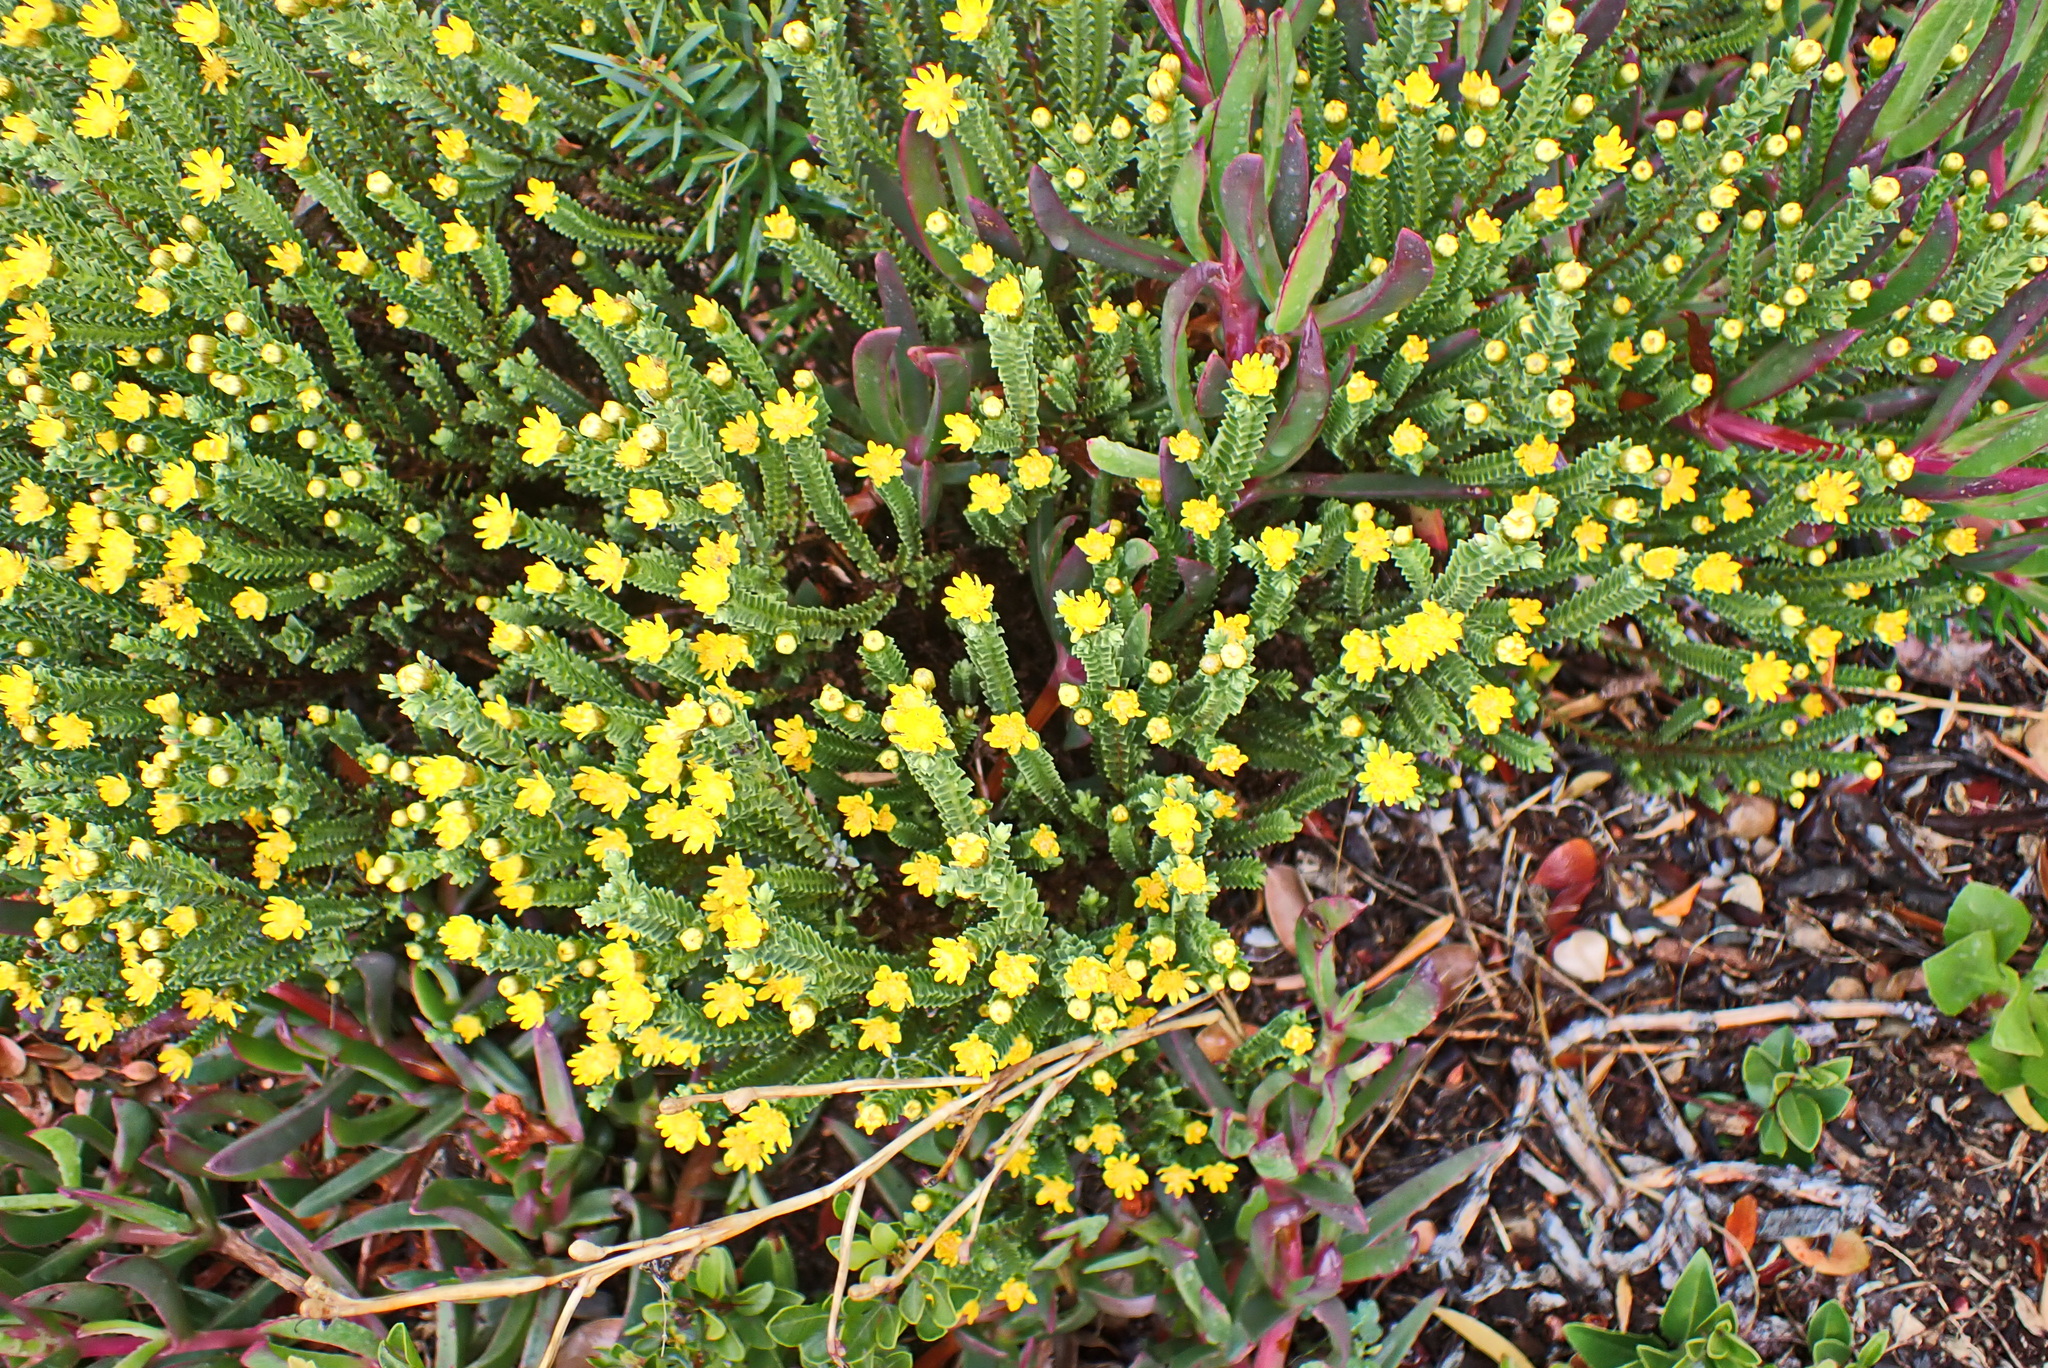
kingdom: Plantae
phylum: Tracheophyta
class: Magnoliopsida
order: Asterales
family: Asteraceae
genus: Oedera
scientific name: Oedera uniflora
